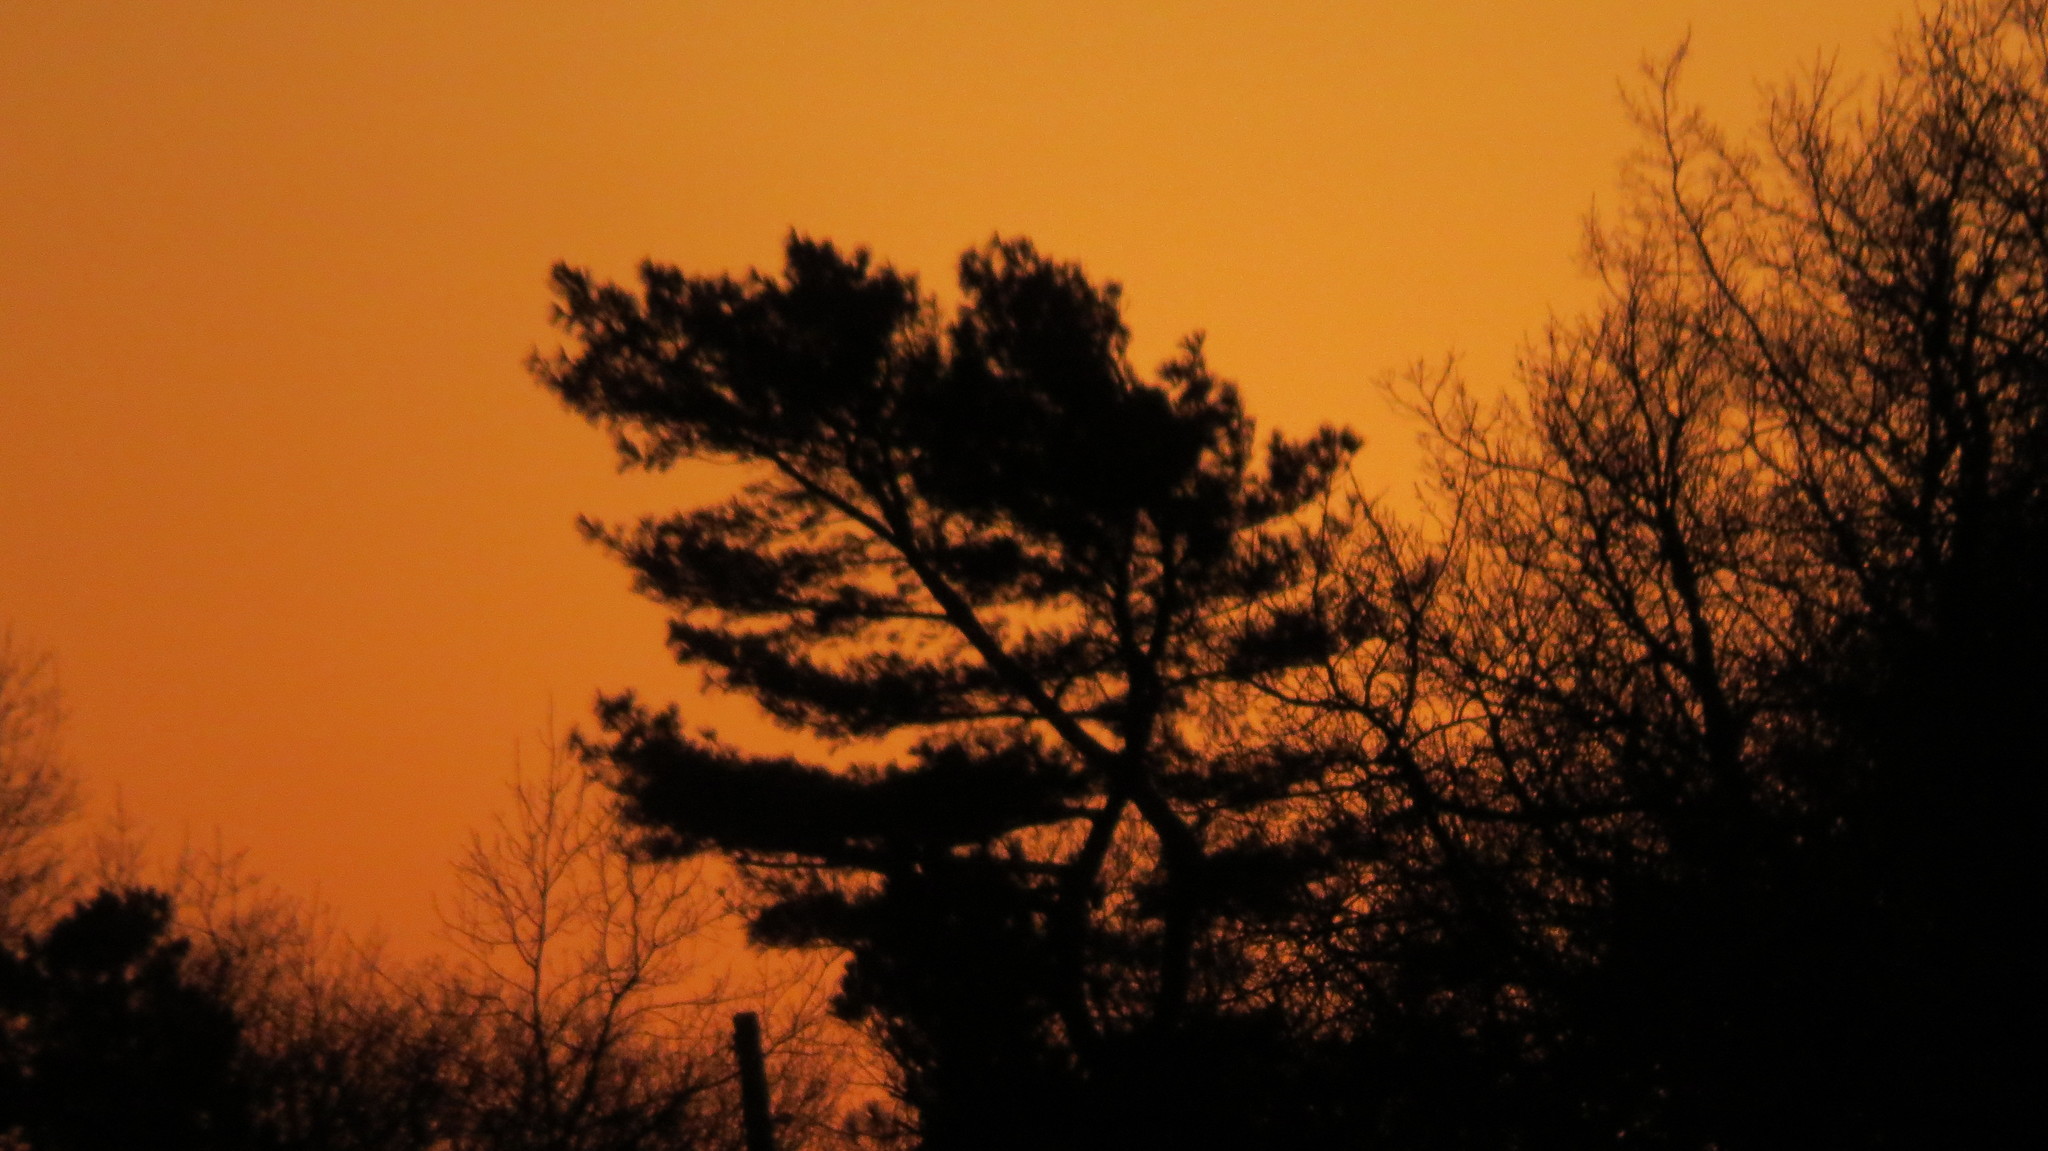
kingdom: Plantae
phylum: Tracheophyta
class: Pinopsida
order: Pinales
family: Pinaceae
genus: Pinus
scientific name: Pinus strobus
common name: Weymouth pine
